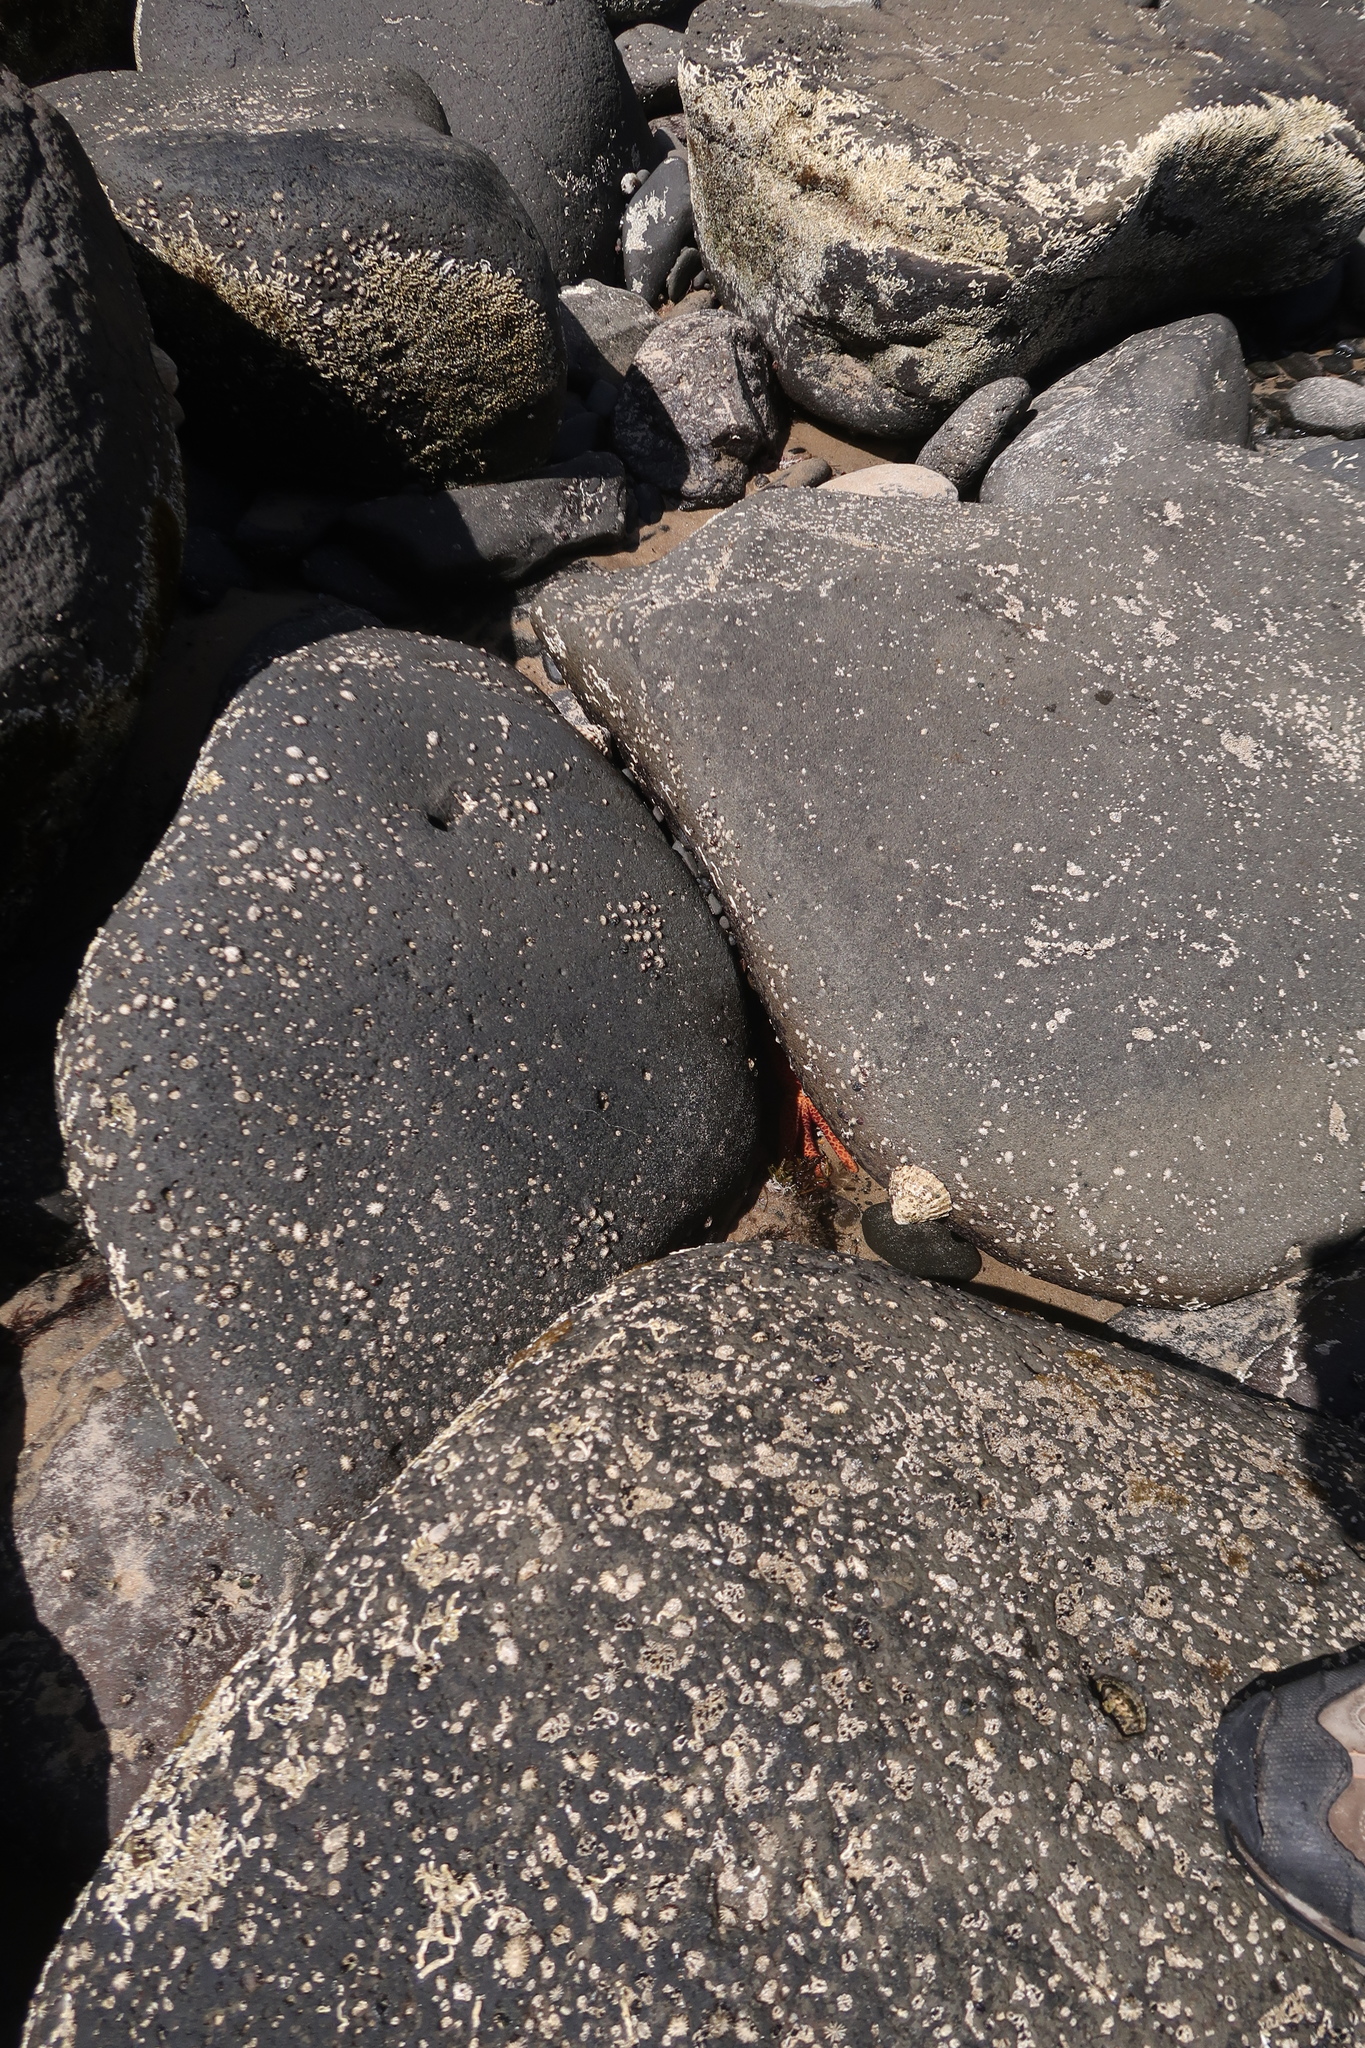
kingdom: Animalia
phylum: Echinodermata
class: Asteroidea
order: Spinulosida
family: Echinasteridae
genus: Plectaster
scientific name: Plectaster decanus
